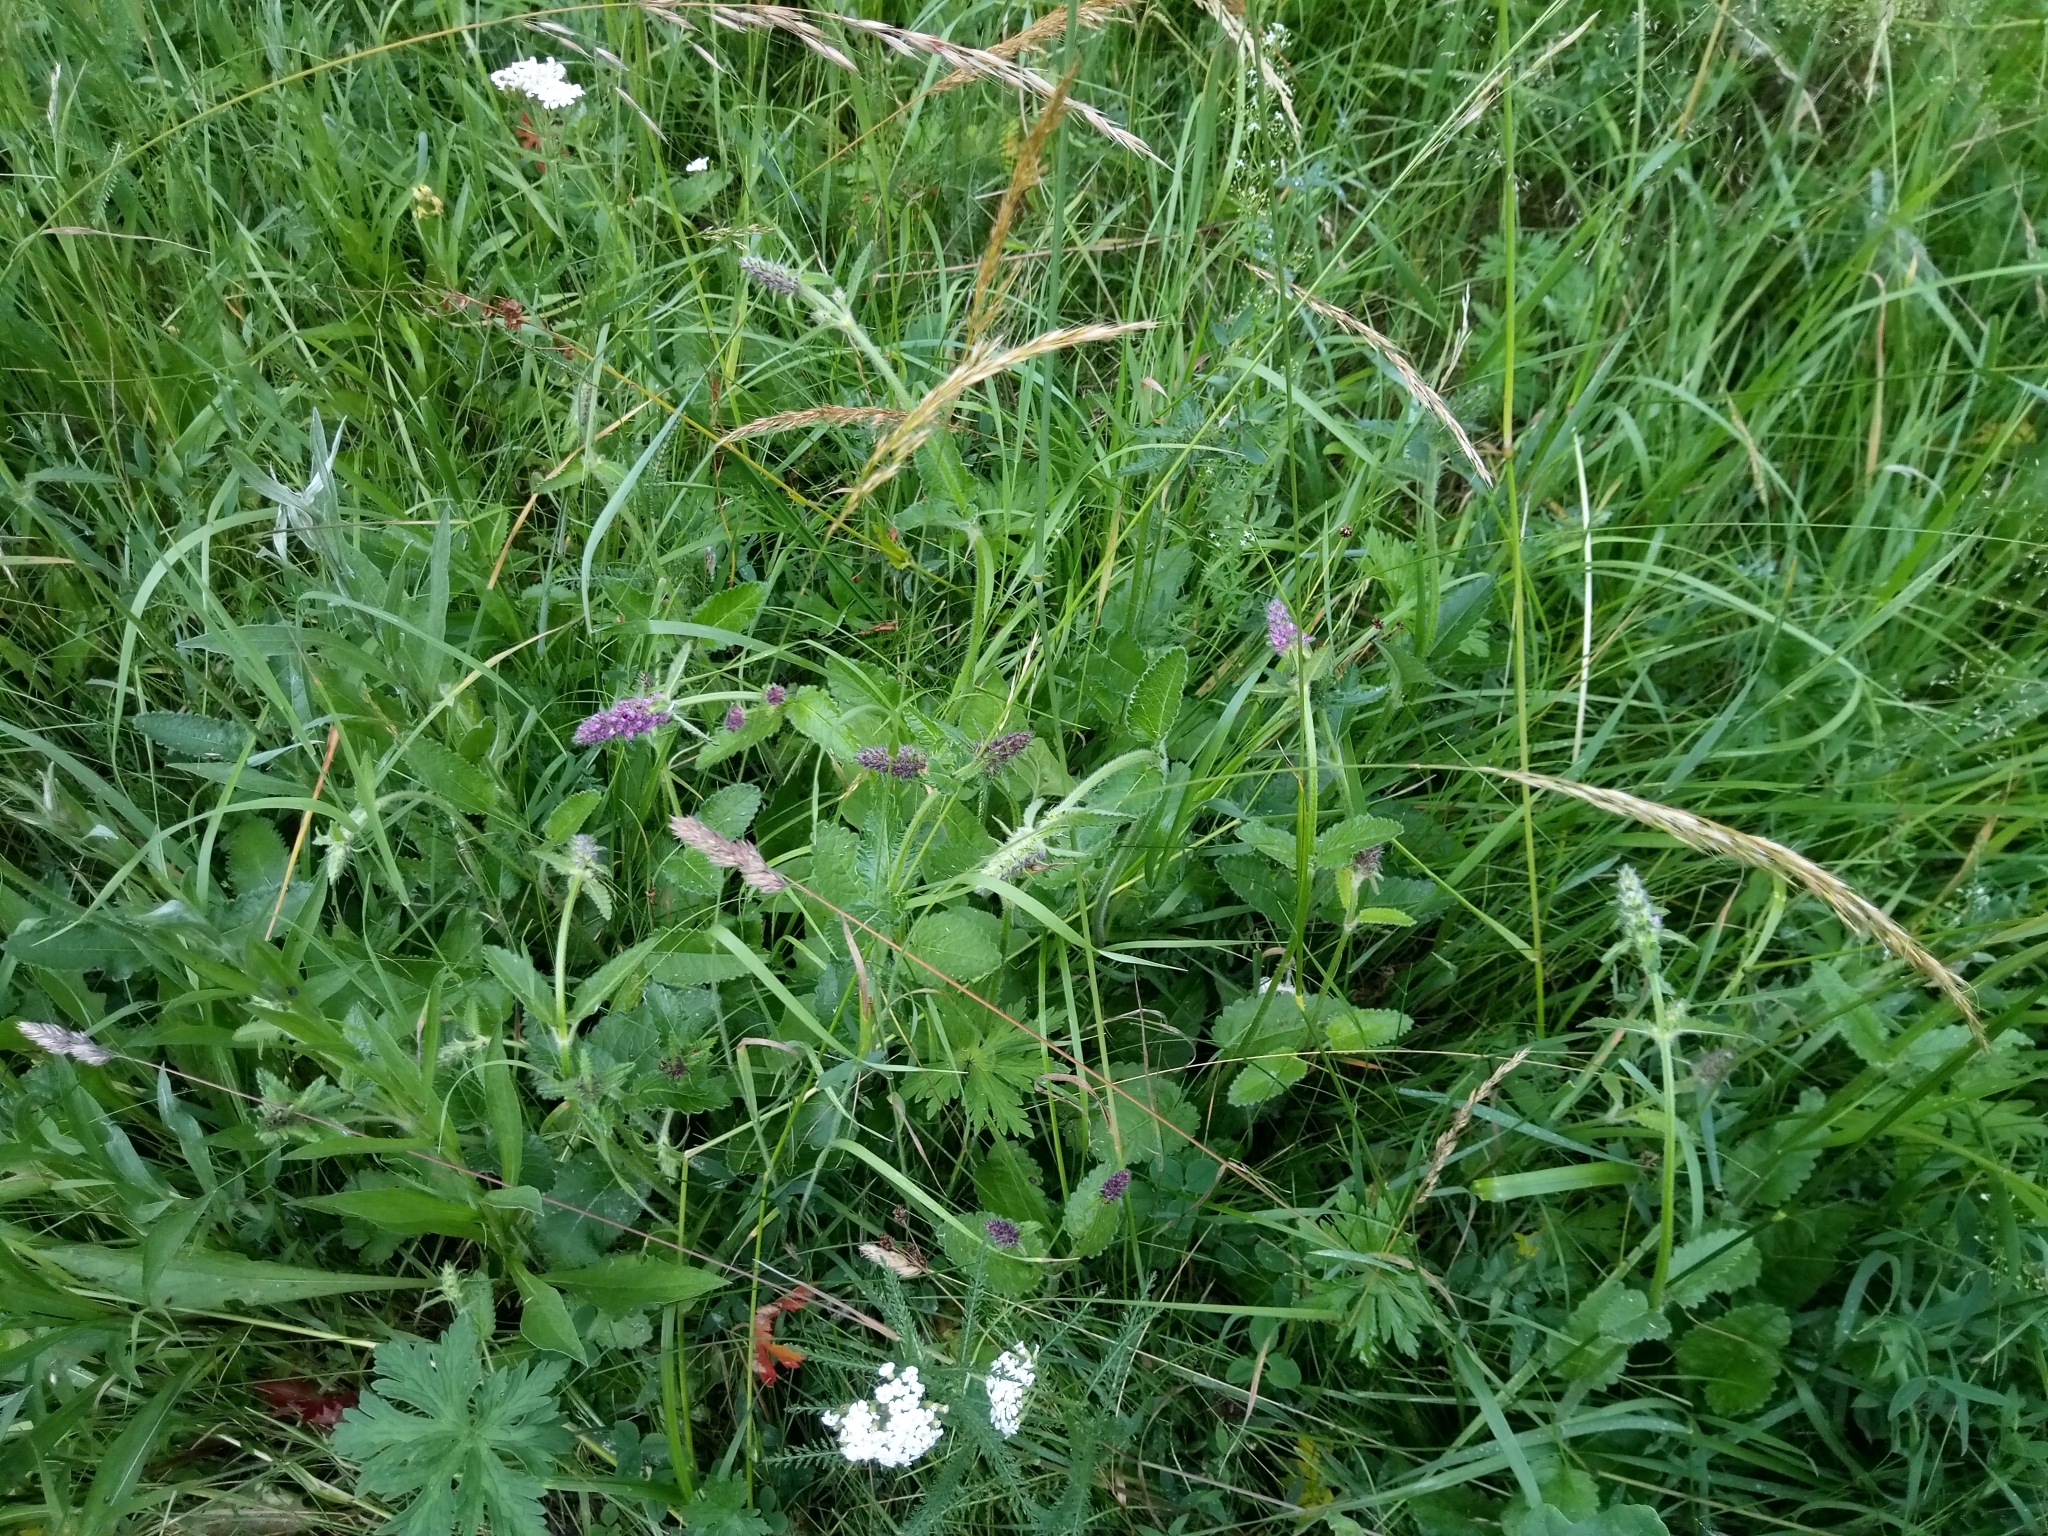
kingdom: Plantae
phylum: Tracheophyta
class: Magnoliopsida
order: Lamiales
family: Lamiaceae
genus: Betonica
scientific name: Betonica officinalis
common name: Bishop's-wort
